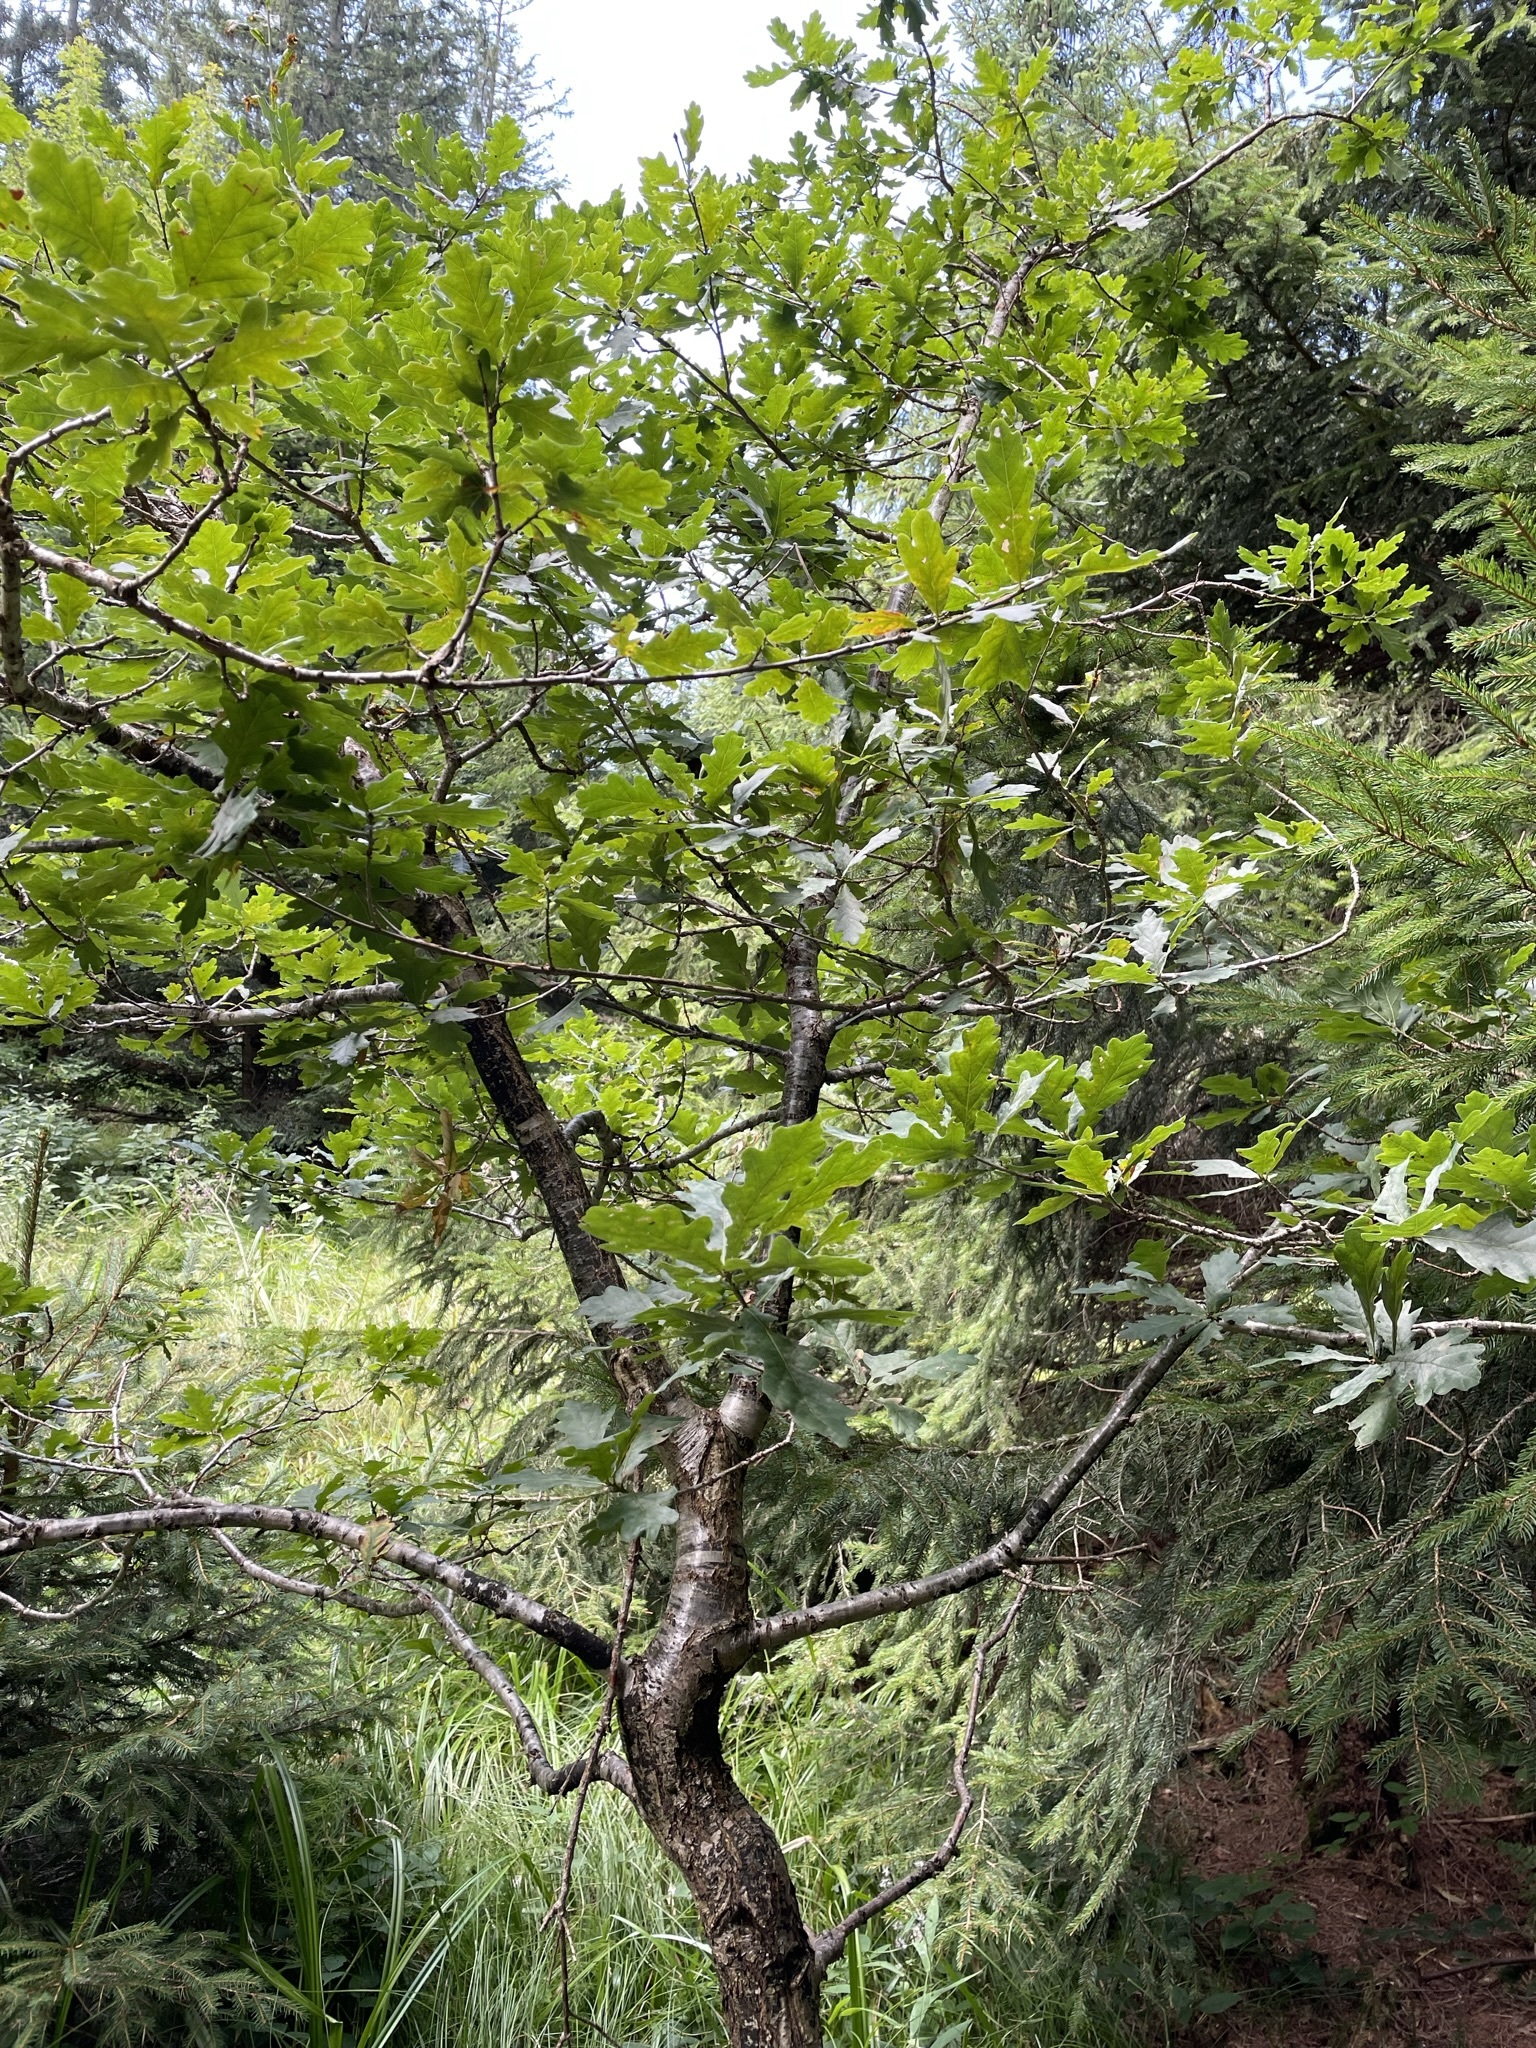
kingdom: Plantae
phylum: Tracheophyta
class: Magnoliopsida
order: Fagales
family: Fagaceae
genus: Quercus
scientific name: Quercus robur
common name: Pedunculate oak
